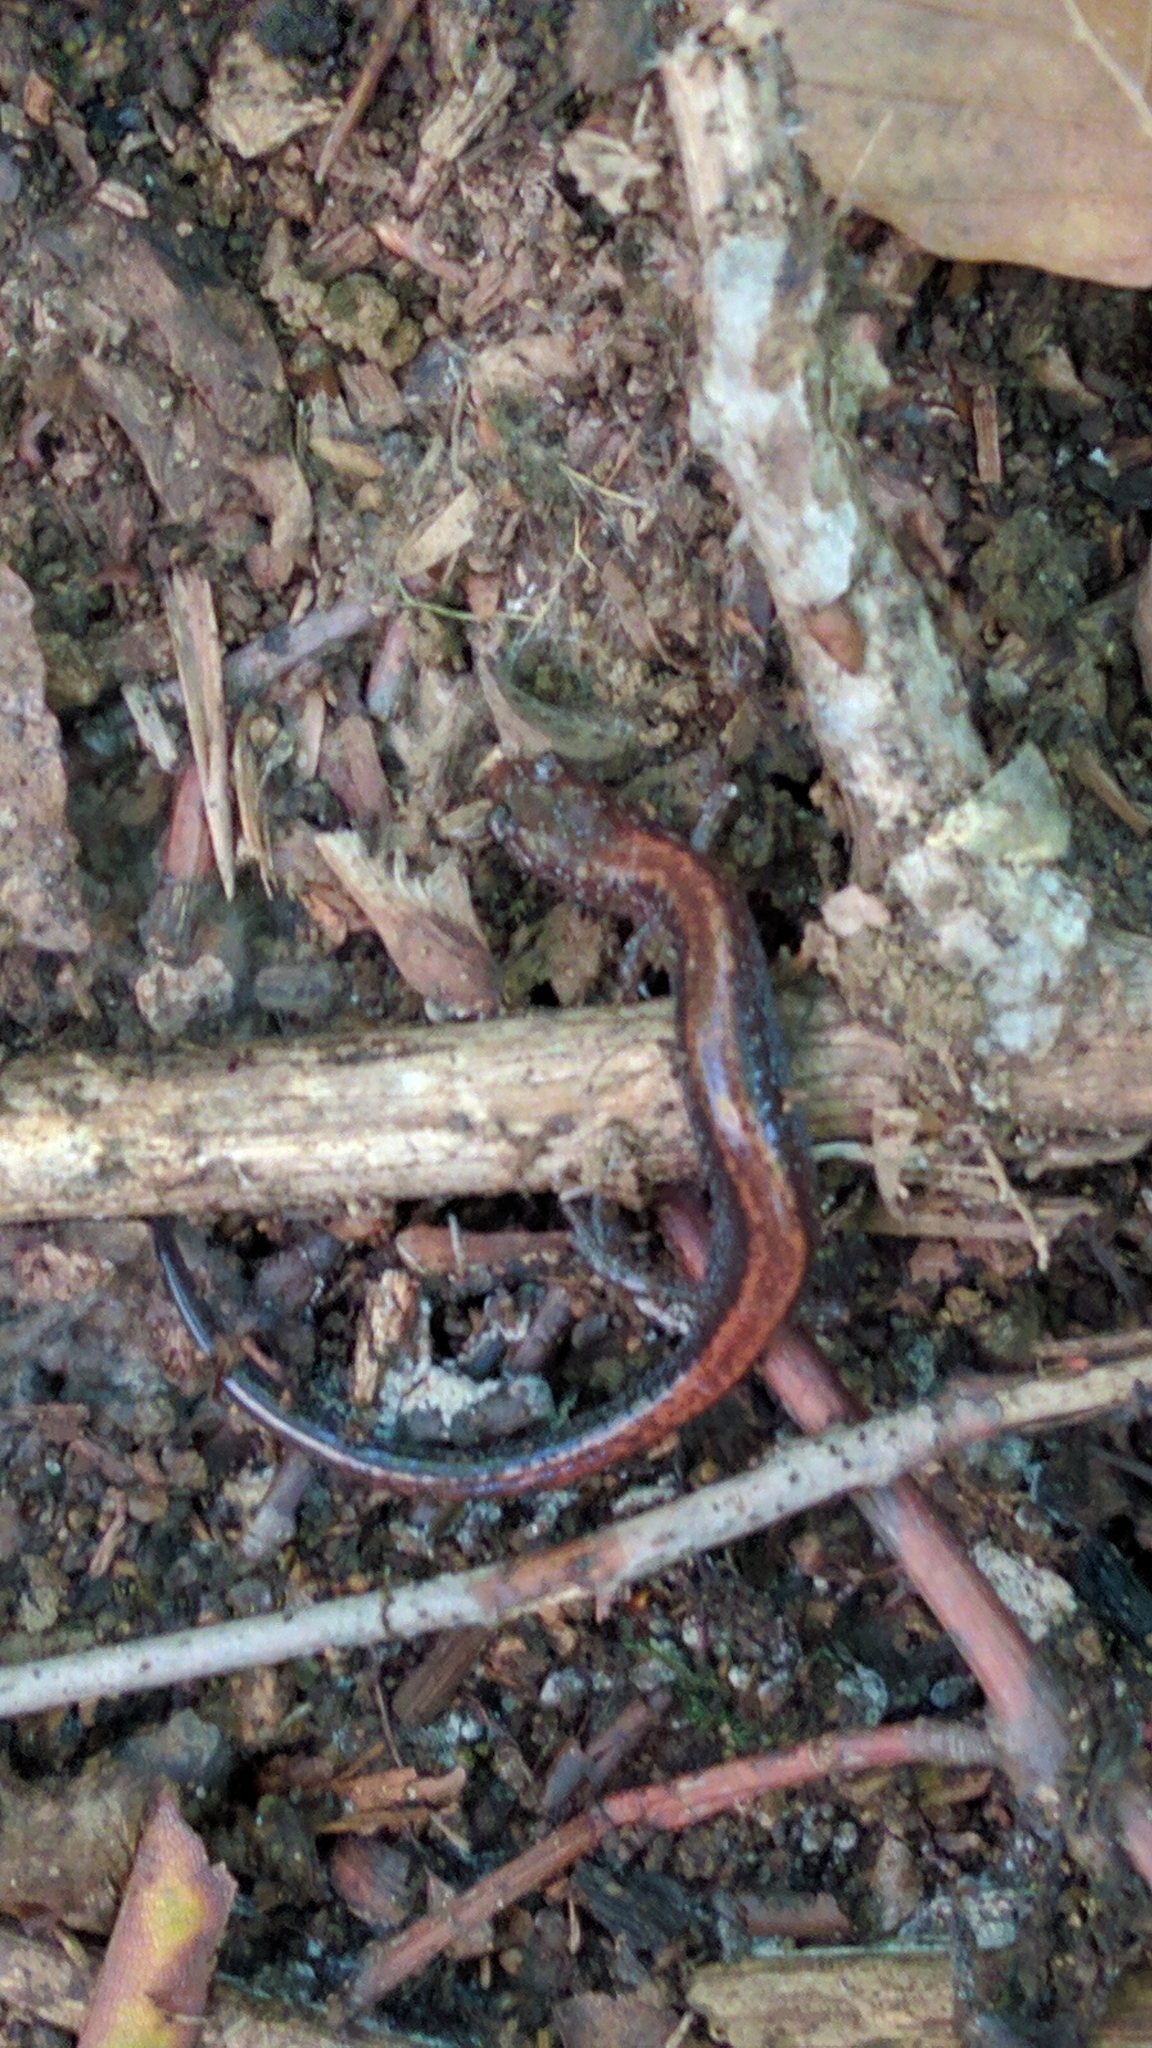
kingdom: Animalia
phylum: Chordata
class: Amphibia
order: Caudata
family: Plethodontidae
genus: Plethodon
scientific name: Plethodon cinereus
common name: Redback salamander
